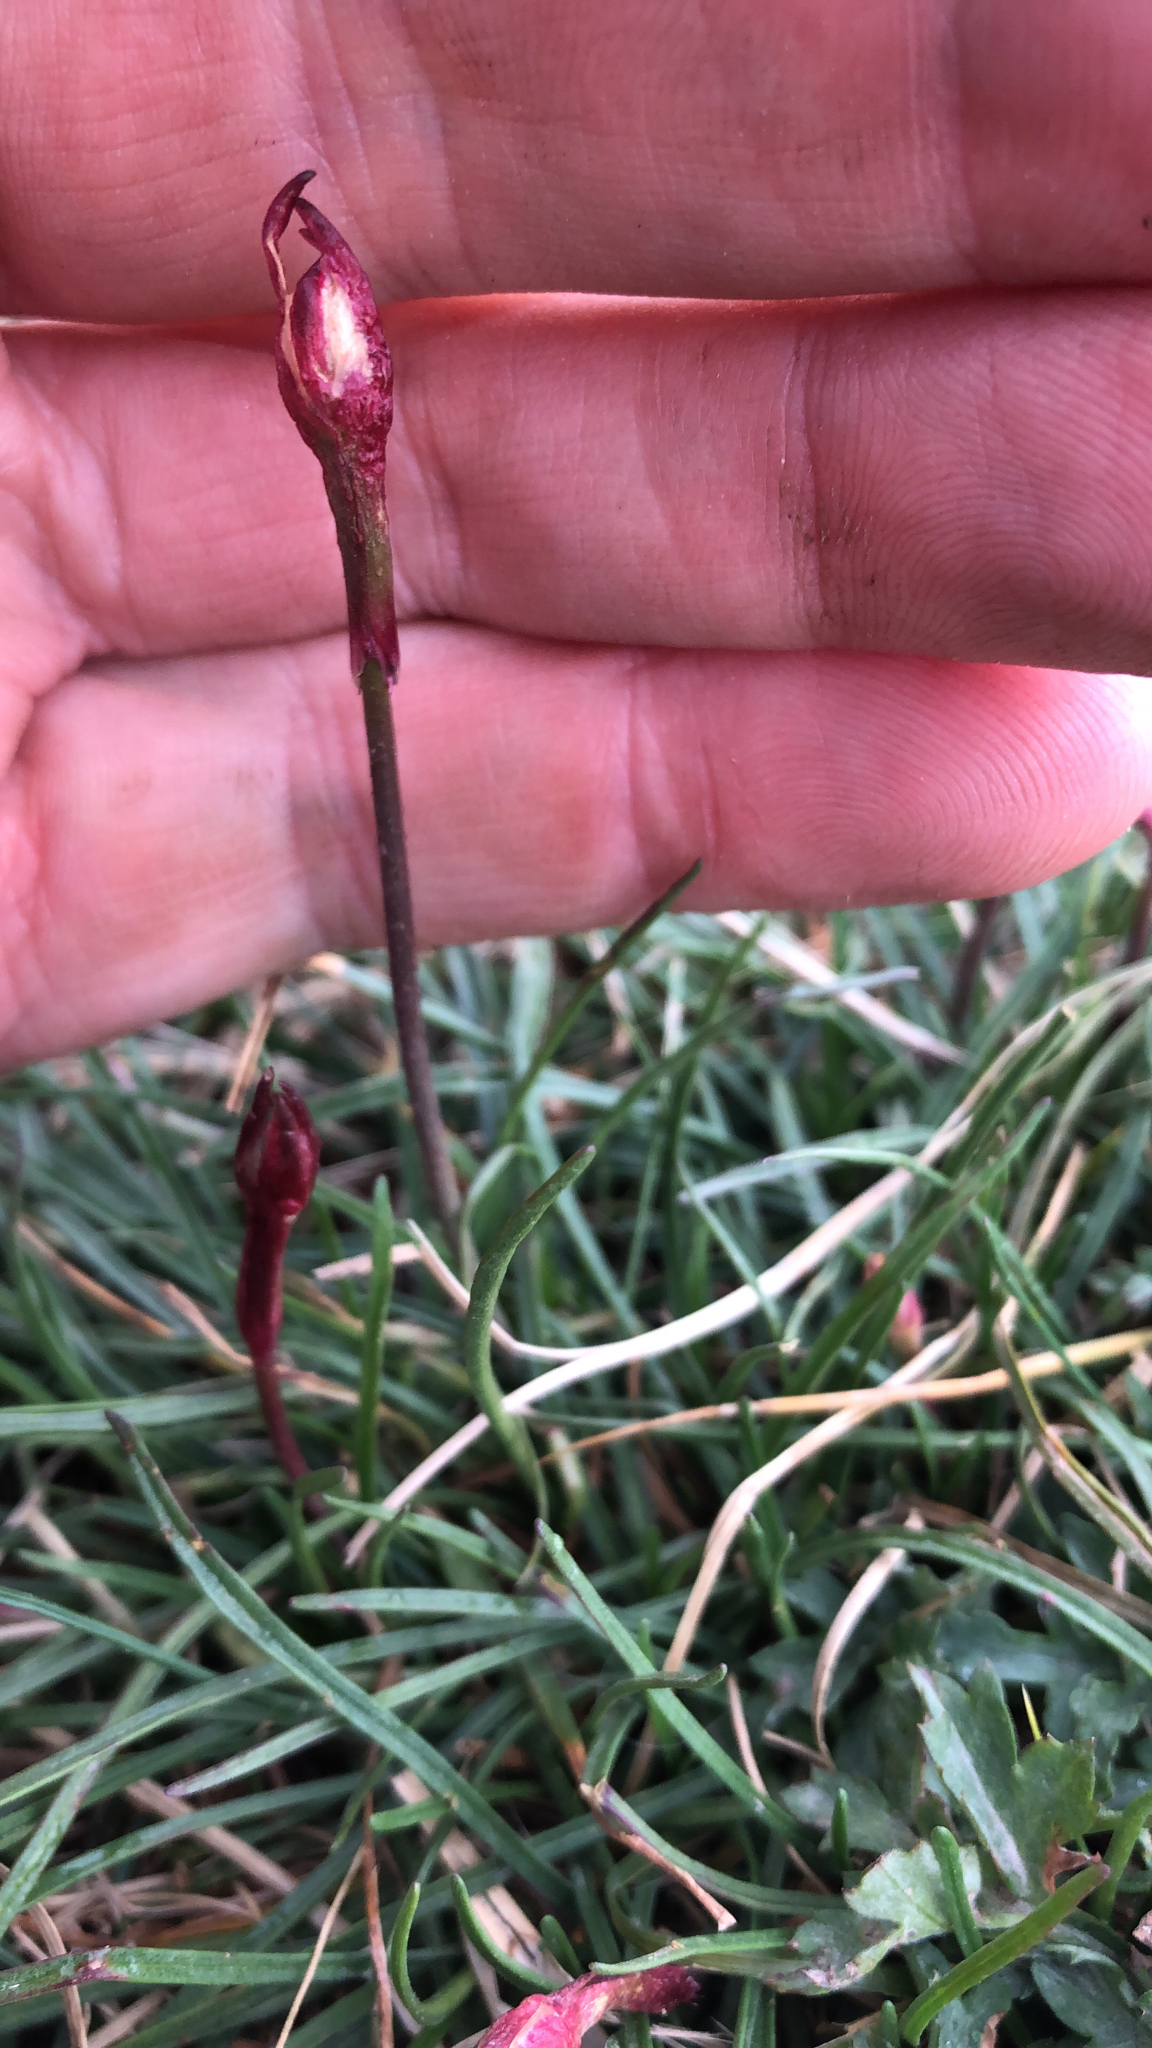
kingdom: Plantae
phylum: Tracheophyta
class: Magnoliopsida
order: Caryophyllales
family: Plumbaginaceae
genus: Armeria
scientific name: Armeria maritima
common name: Thrift
